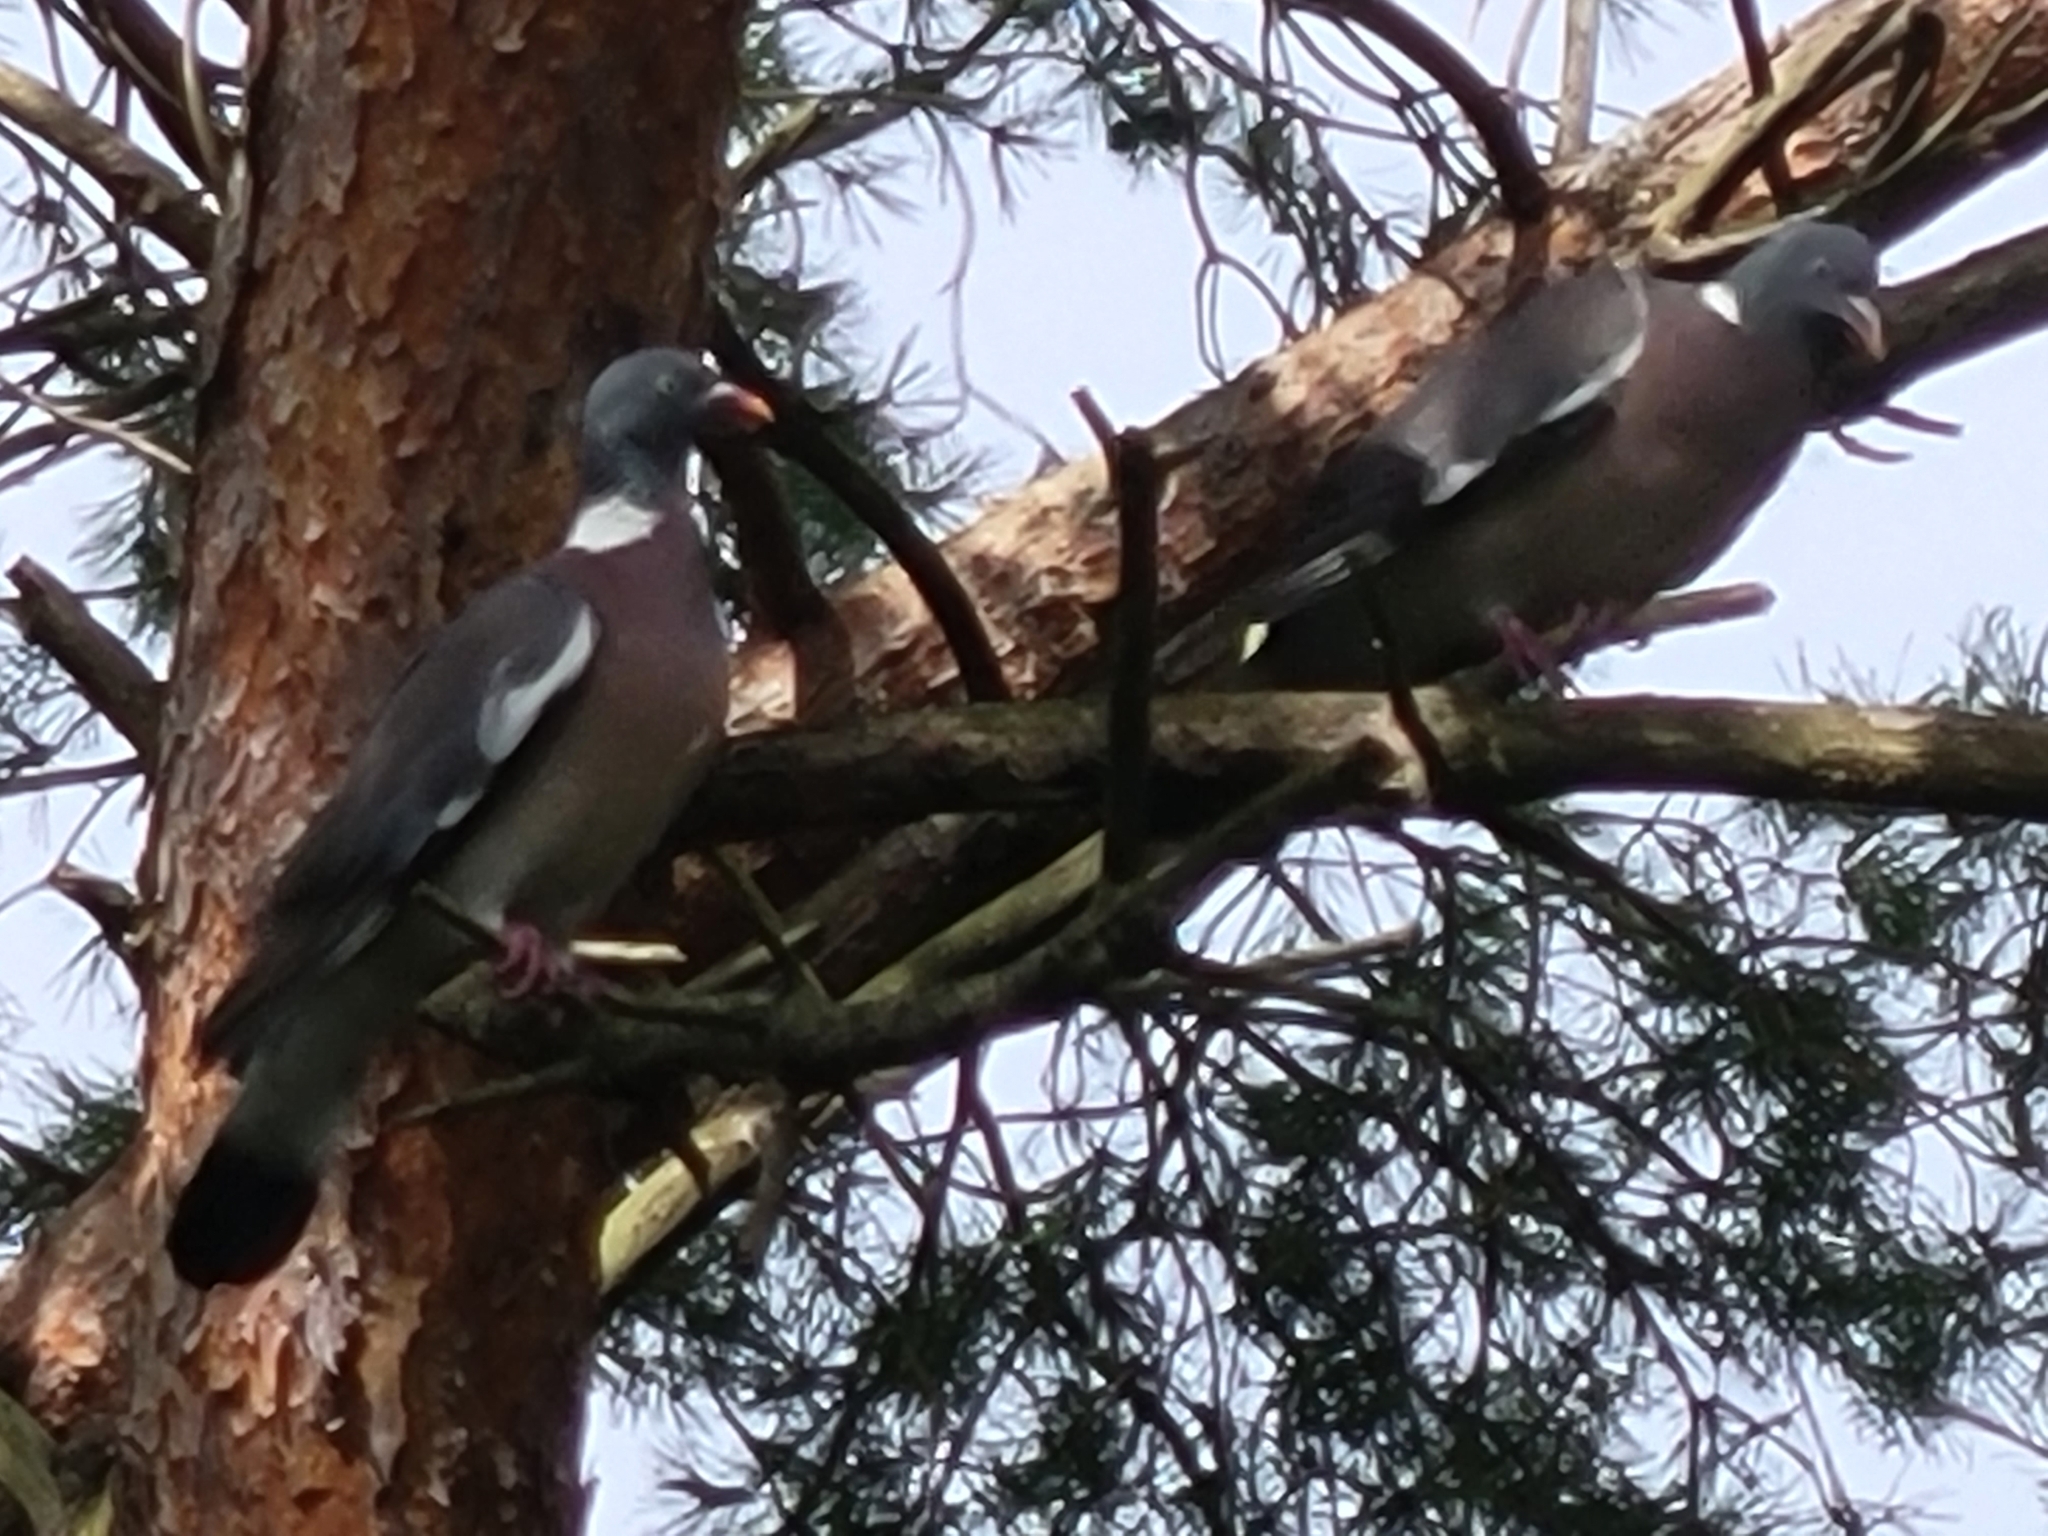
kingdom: Animalia
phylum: Chordata
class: Aves
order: Columbiformes
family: Columbidae
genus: Columba
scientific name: Columba palumbus
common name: Common wood pigeon
